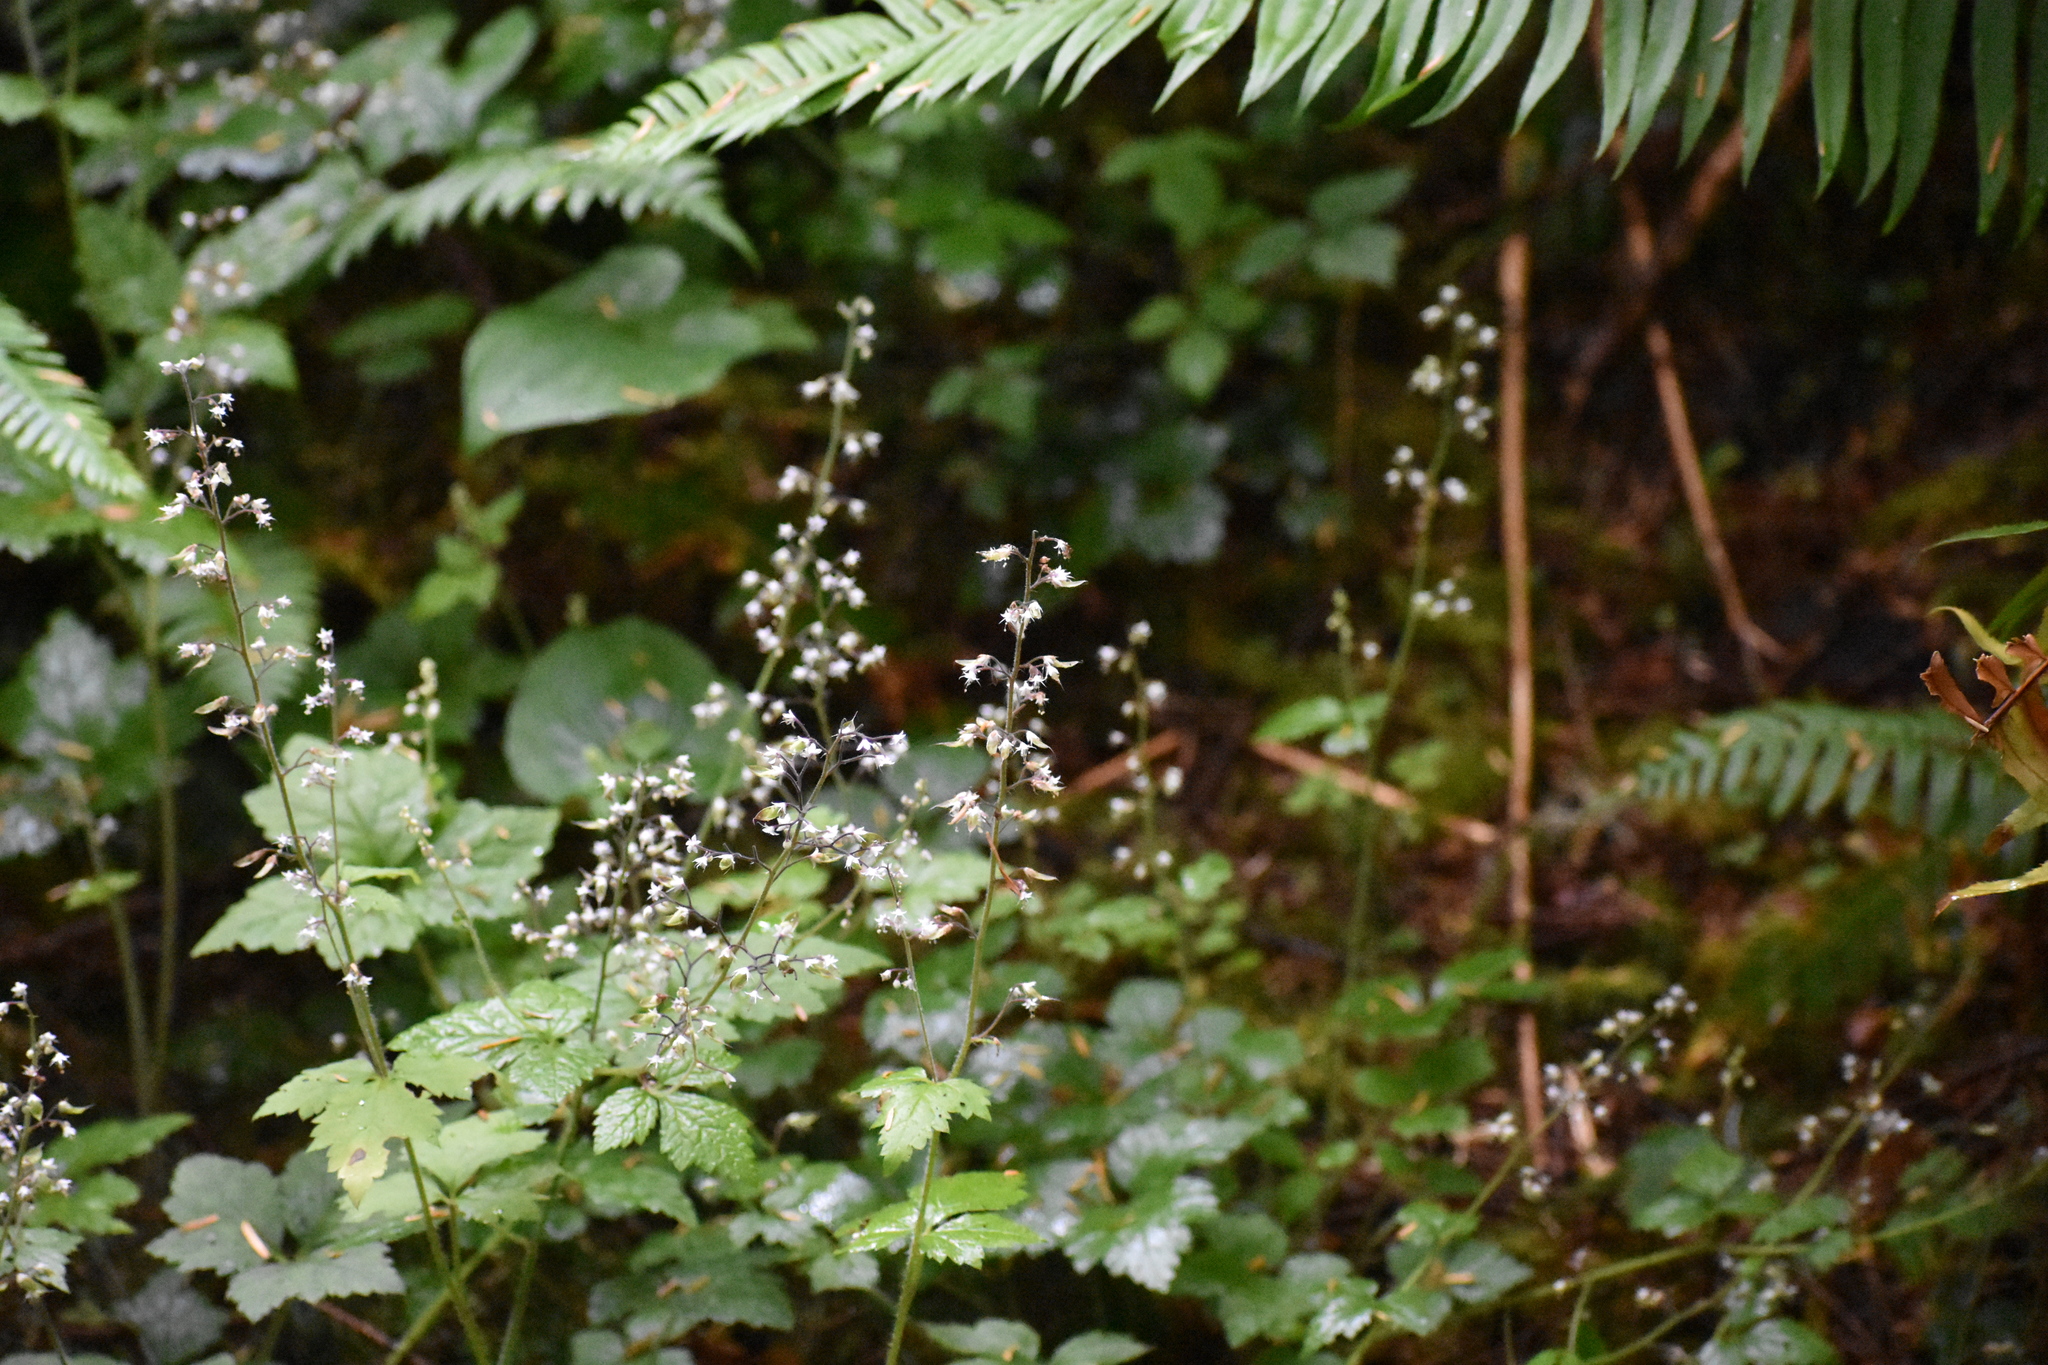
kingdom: Plantae
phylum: Tracheophyta
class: Magnoliopsida
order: Saxifragales
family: Saxifragaceae
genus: Tiarella
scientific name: Tiarella trifoliata
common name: Sugar-scoop
